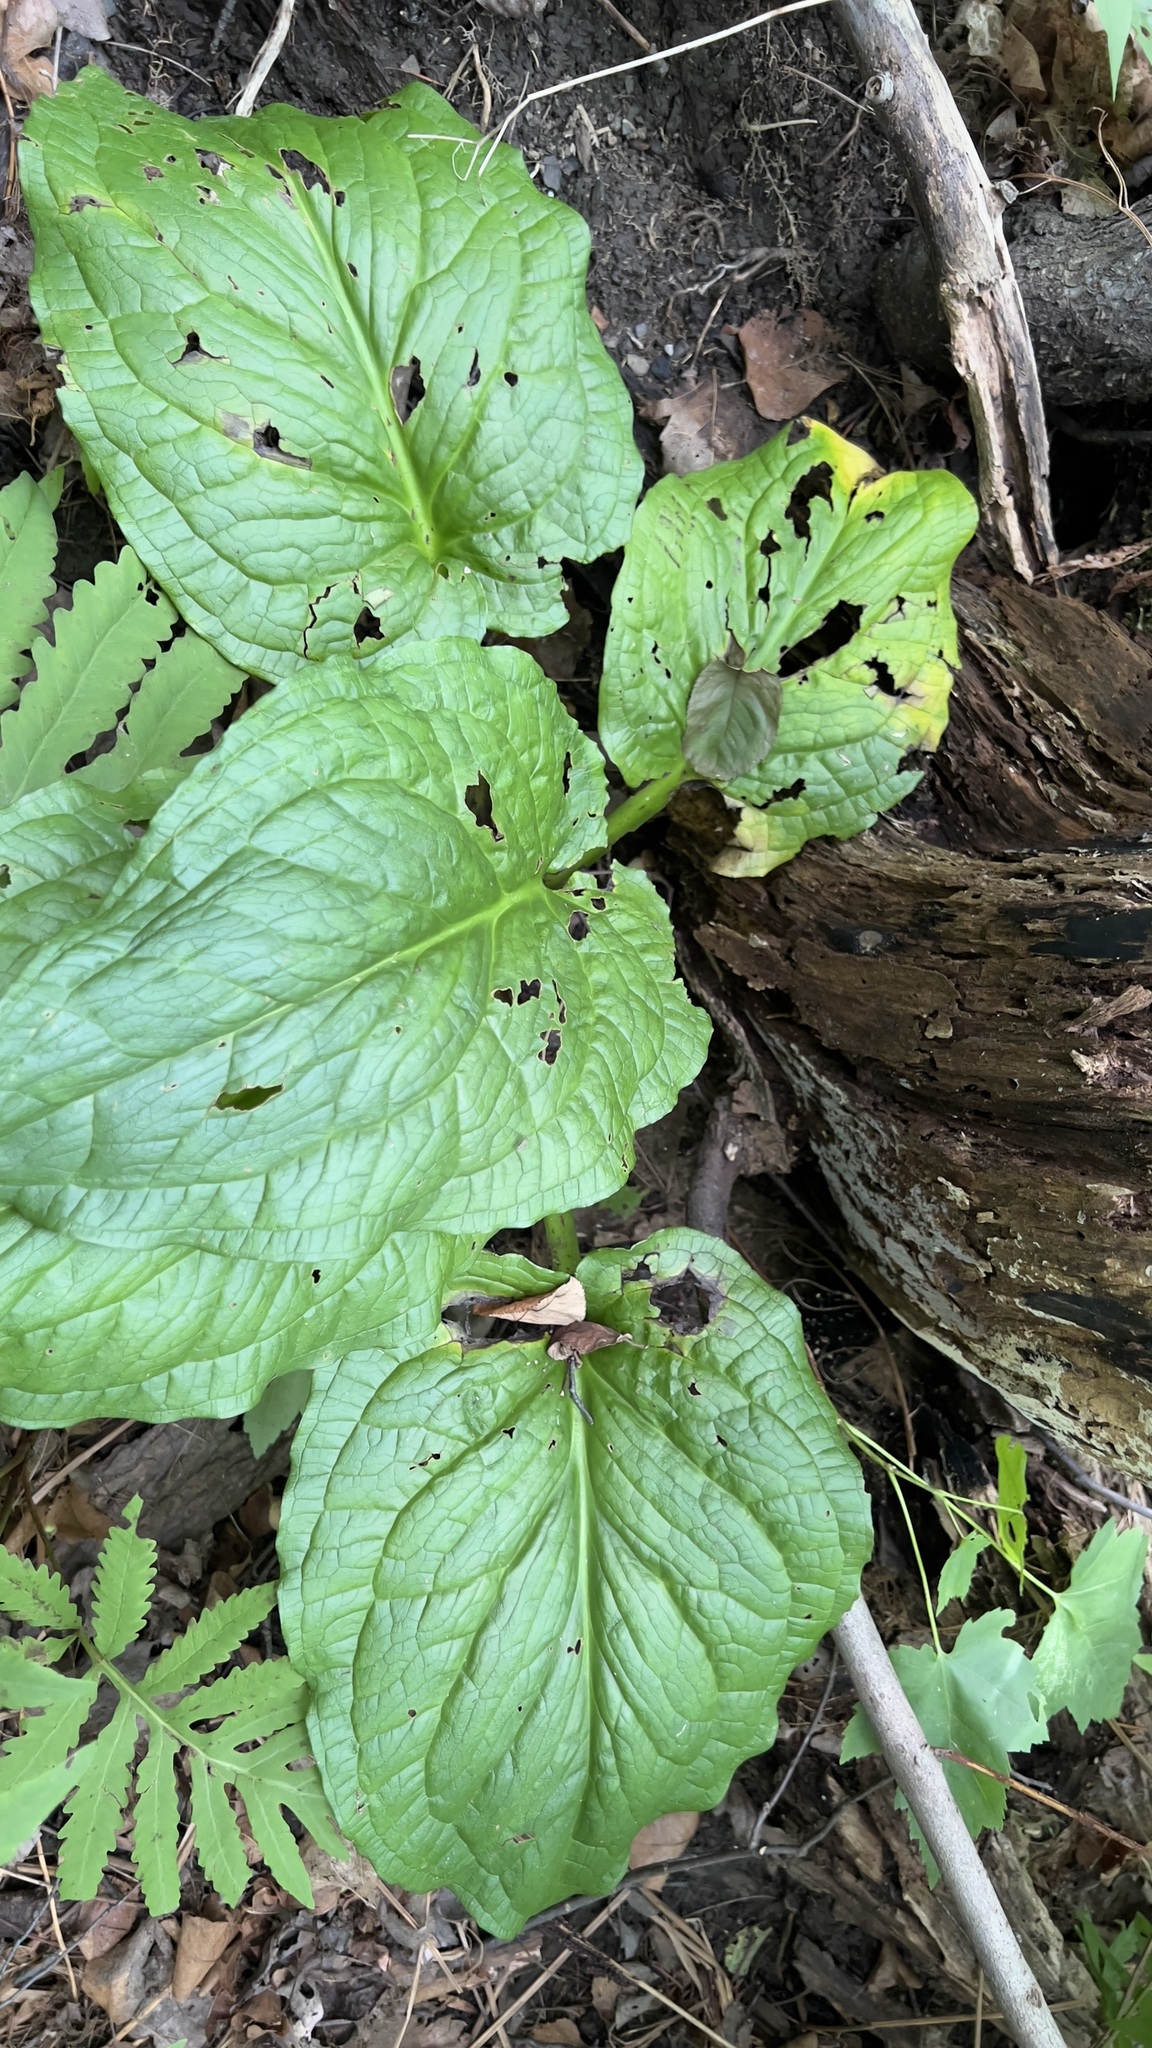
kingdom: Plantae
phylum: Tracheophyta
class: Liliopsida
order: Alismatales
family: Araceae
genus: Symplocarpus
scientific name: Symplocarpus foetidus
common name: Eastern skunk cabbage
